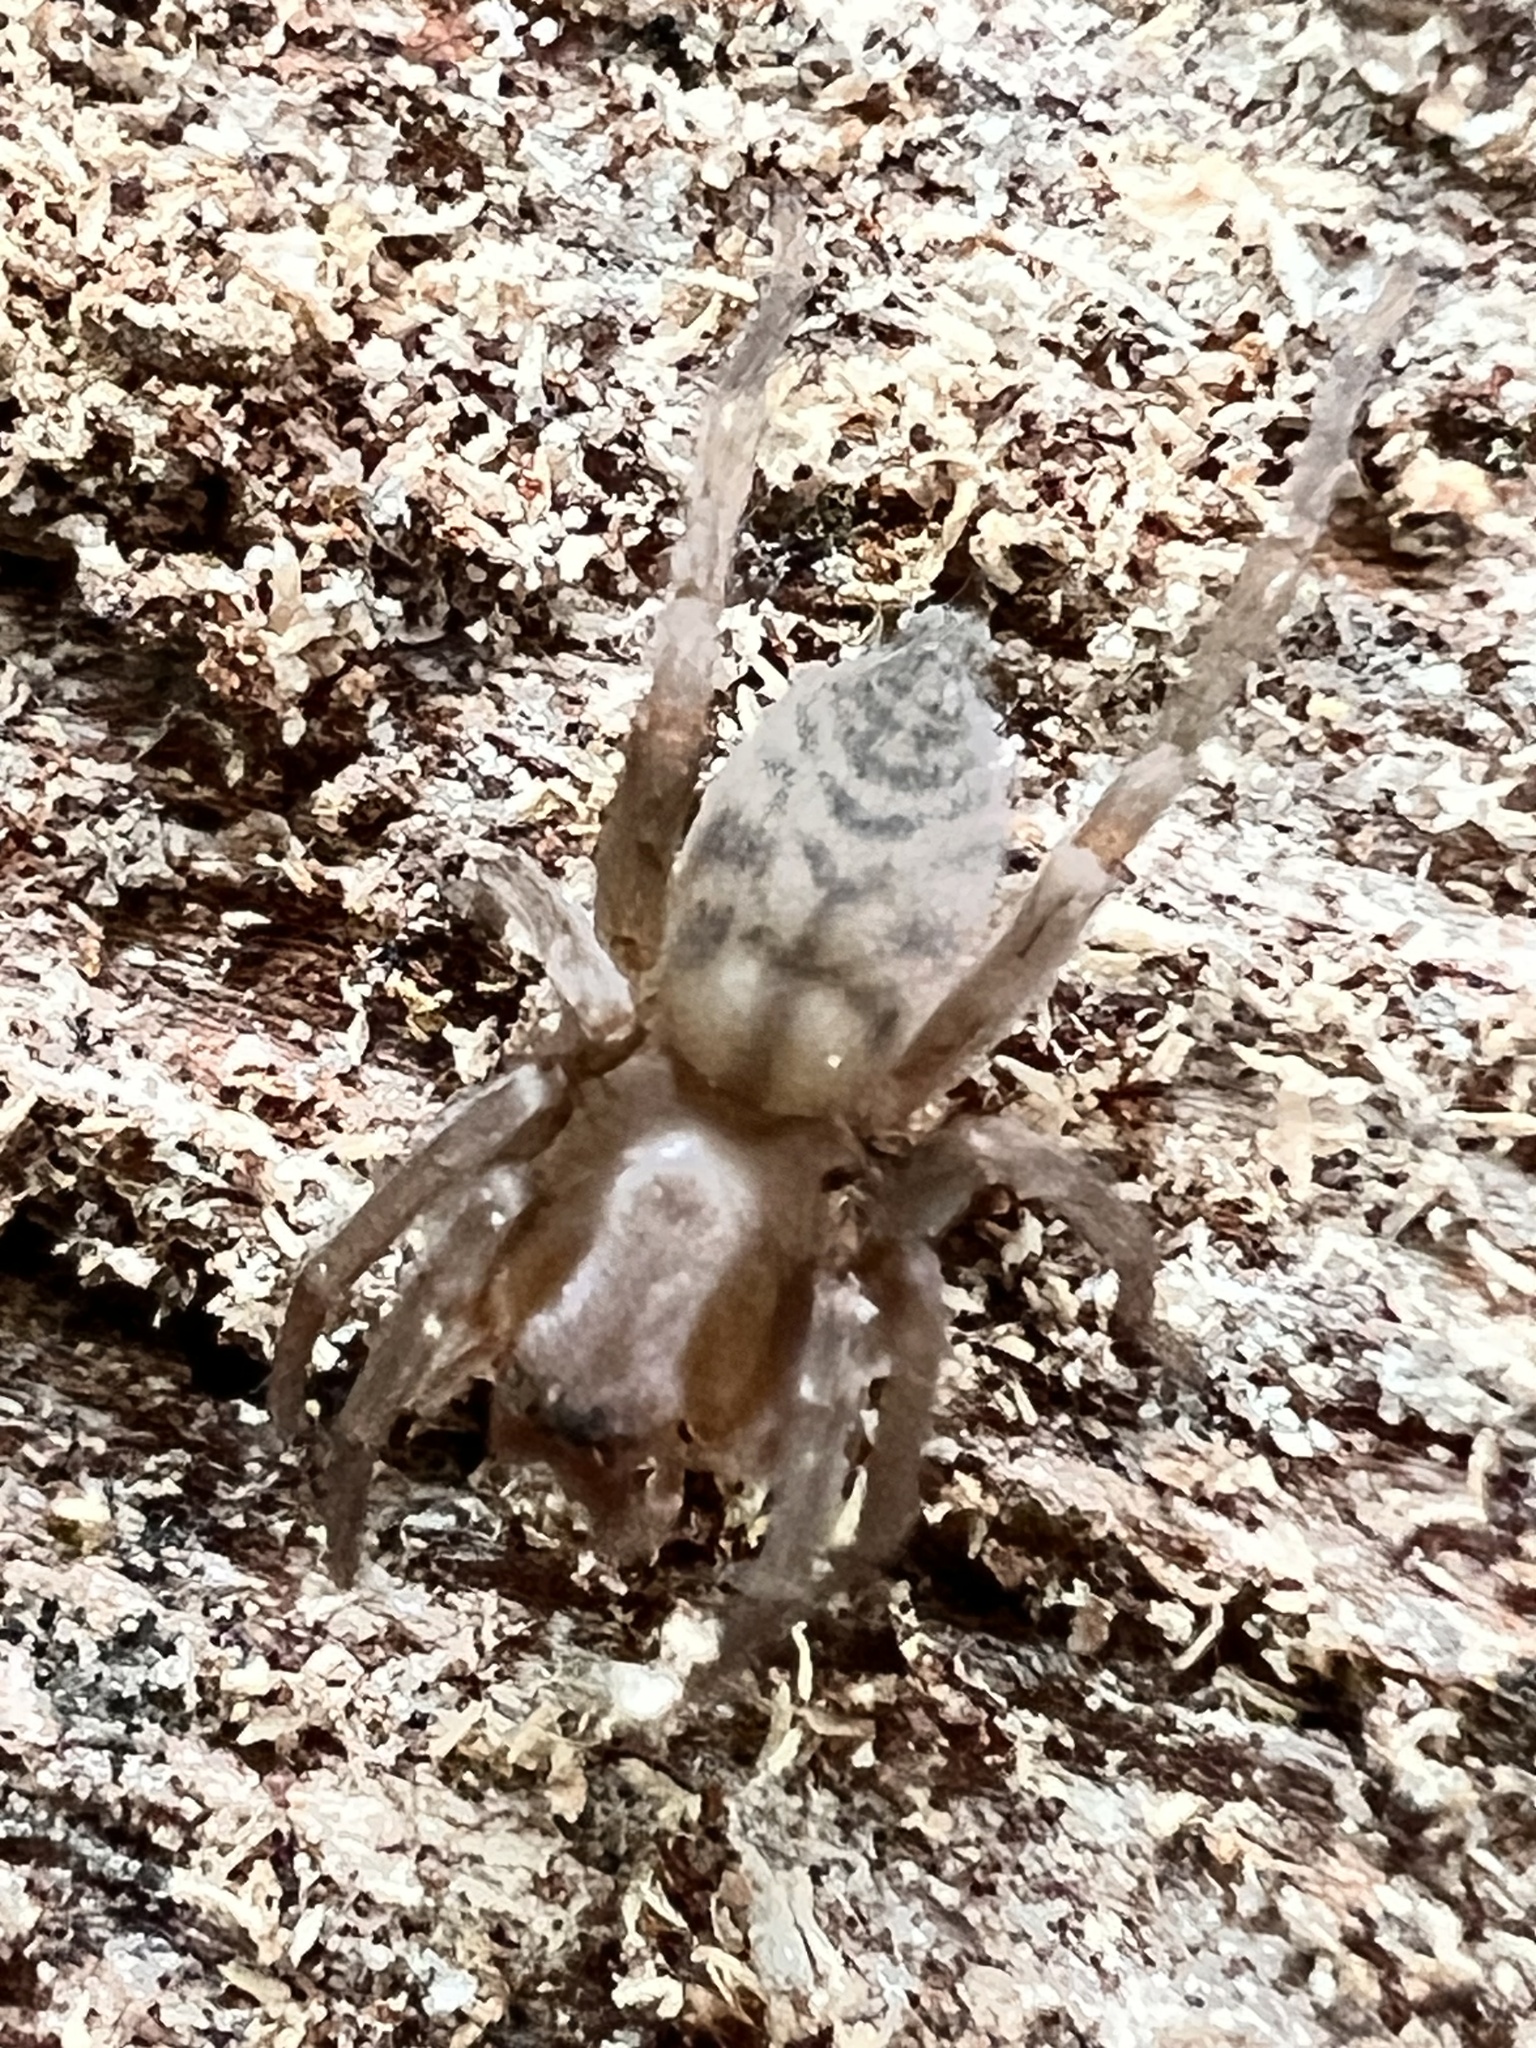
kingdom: Animalia
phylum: Arthropoda
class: Arachnida
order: Araneae
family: Clubionidae
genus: Elaver
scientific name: Elaver excepta
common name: White sac spider
